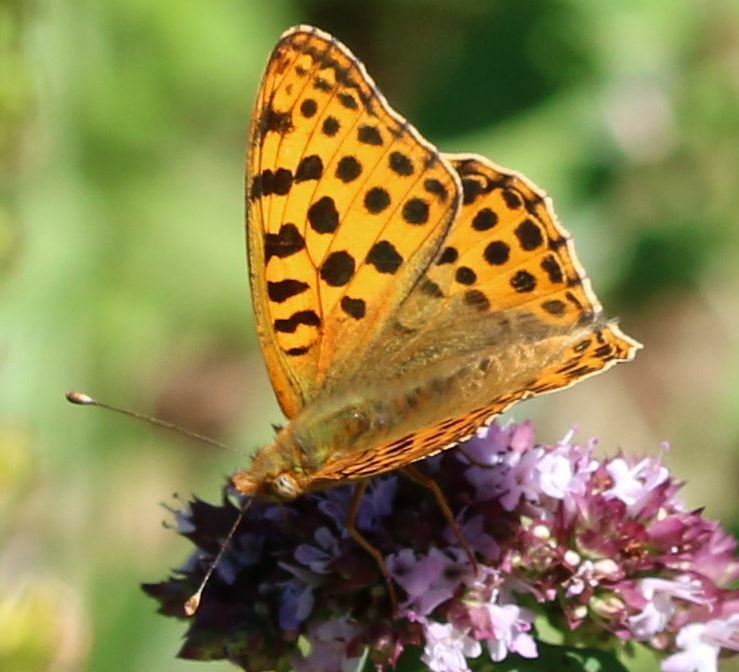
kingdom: Animalia
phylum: Arthropoda
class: Insecta
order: Lepidoptera
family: Nymphalidae
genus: Issoria
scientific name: Issoria lathonia
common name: Queen of spain fritillary
